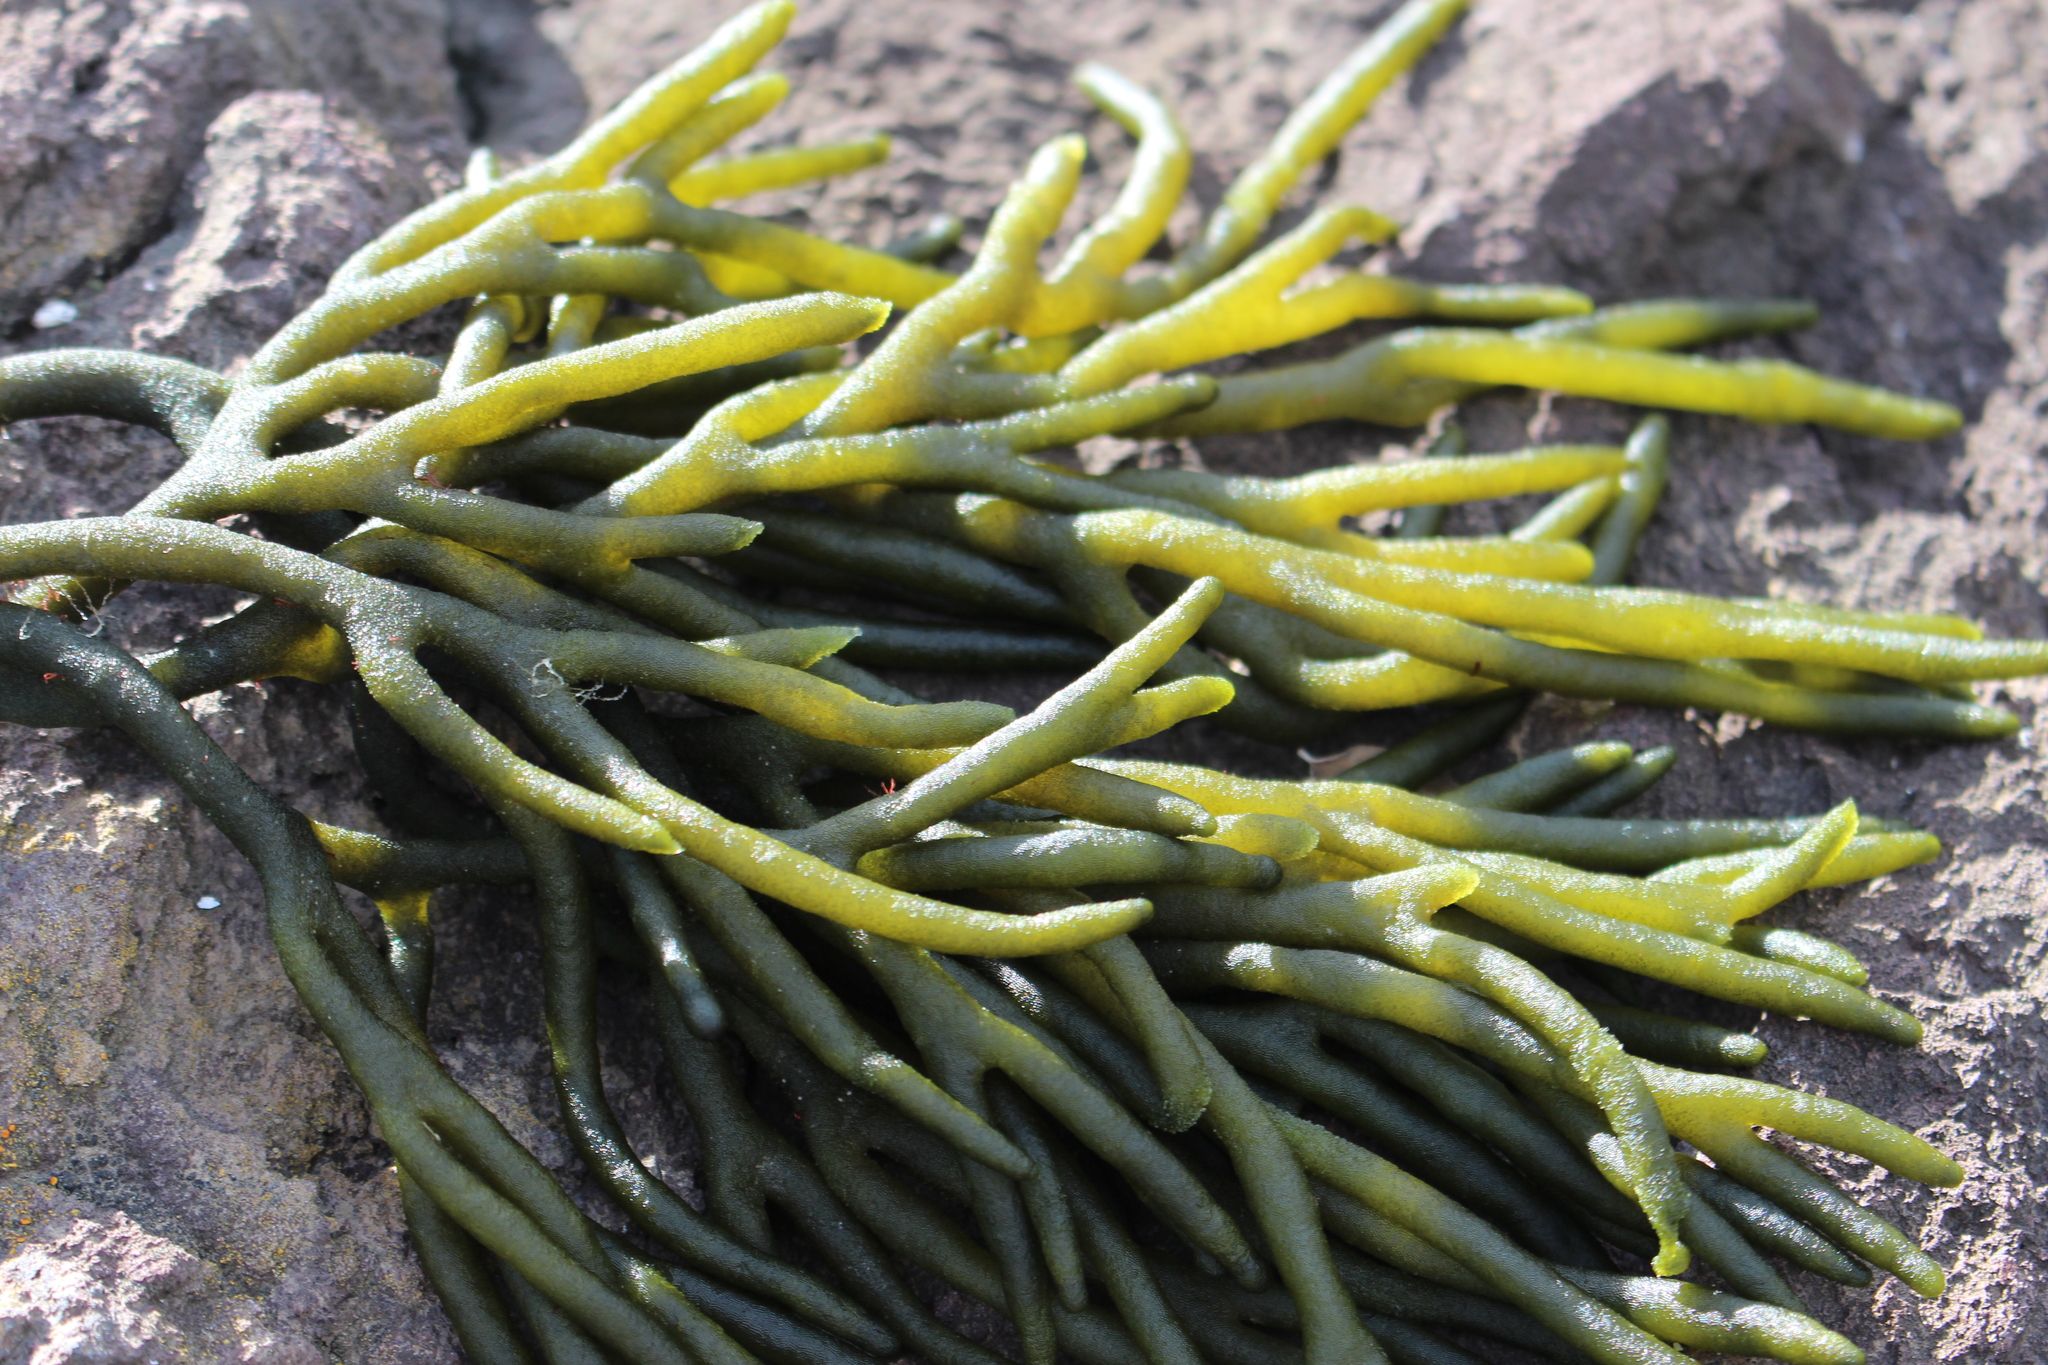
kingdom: Plantae
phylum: Chlorophyta
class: Ulvophyceae
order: Bryopsidales
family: Codiaceae
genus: Codium
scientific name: Codium fragile
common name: Dead man's fingers
